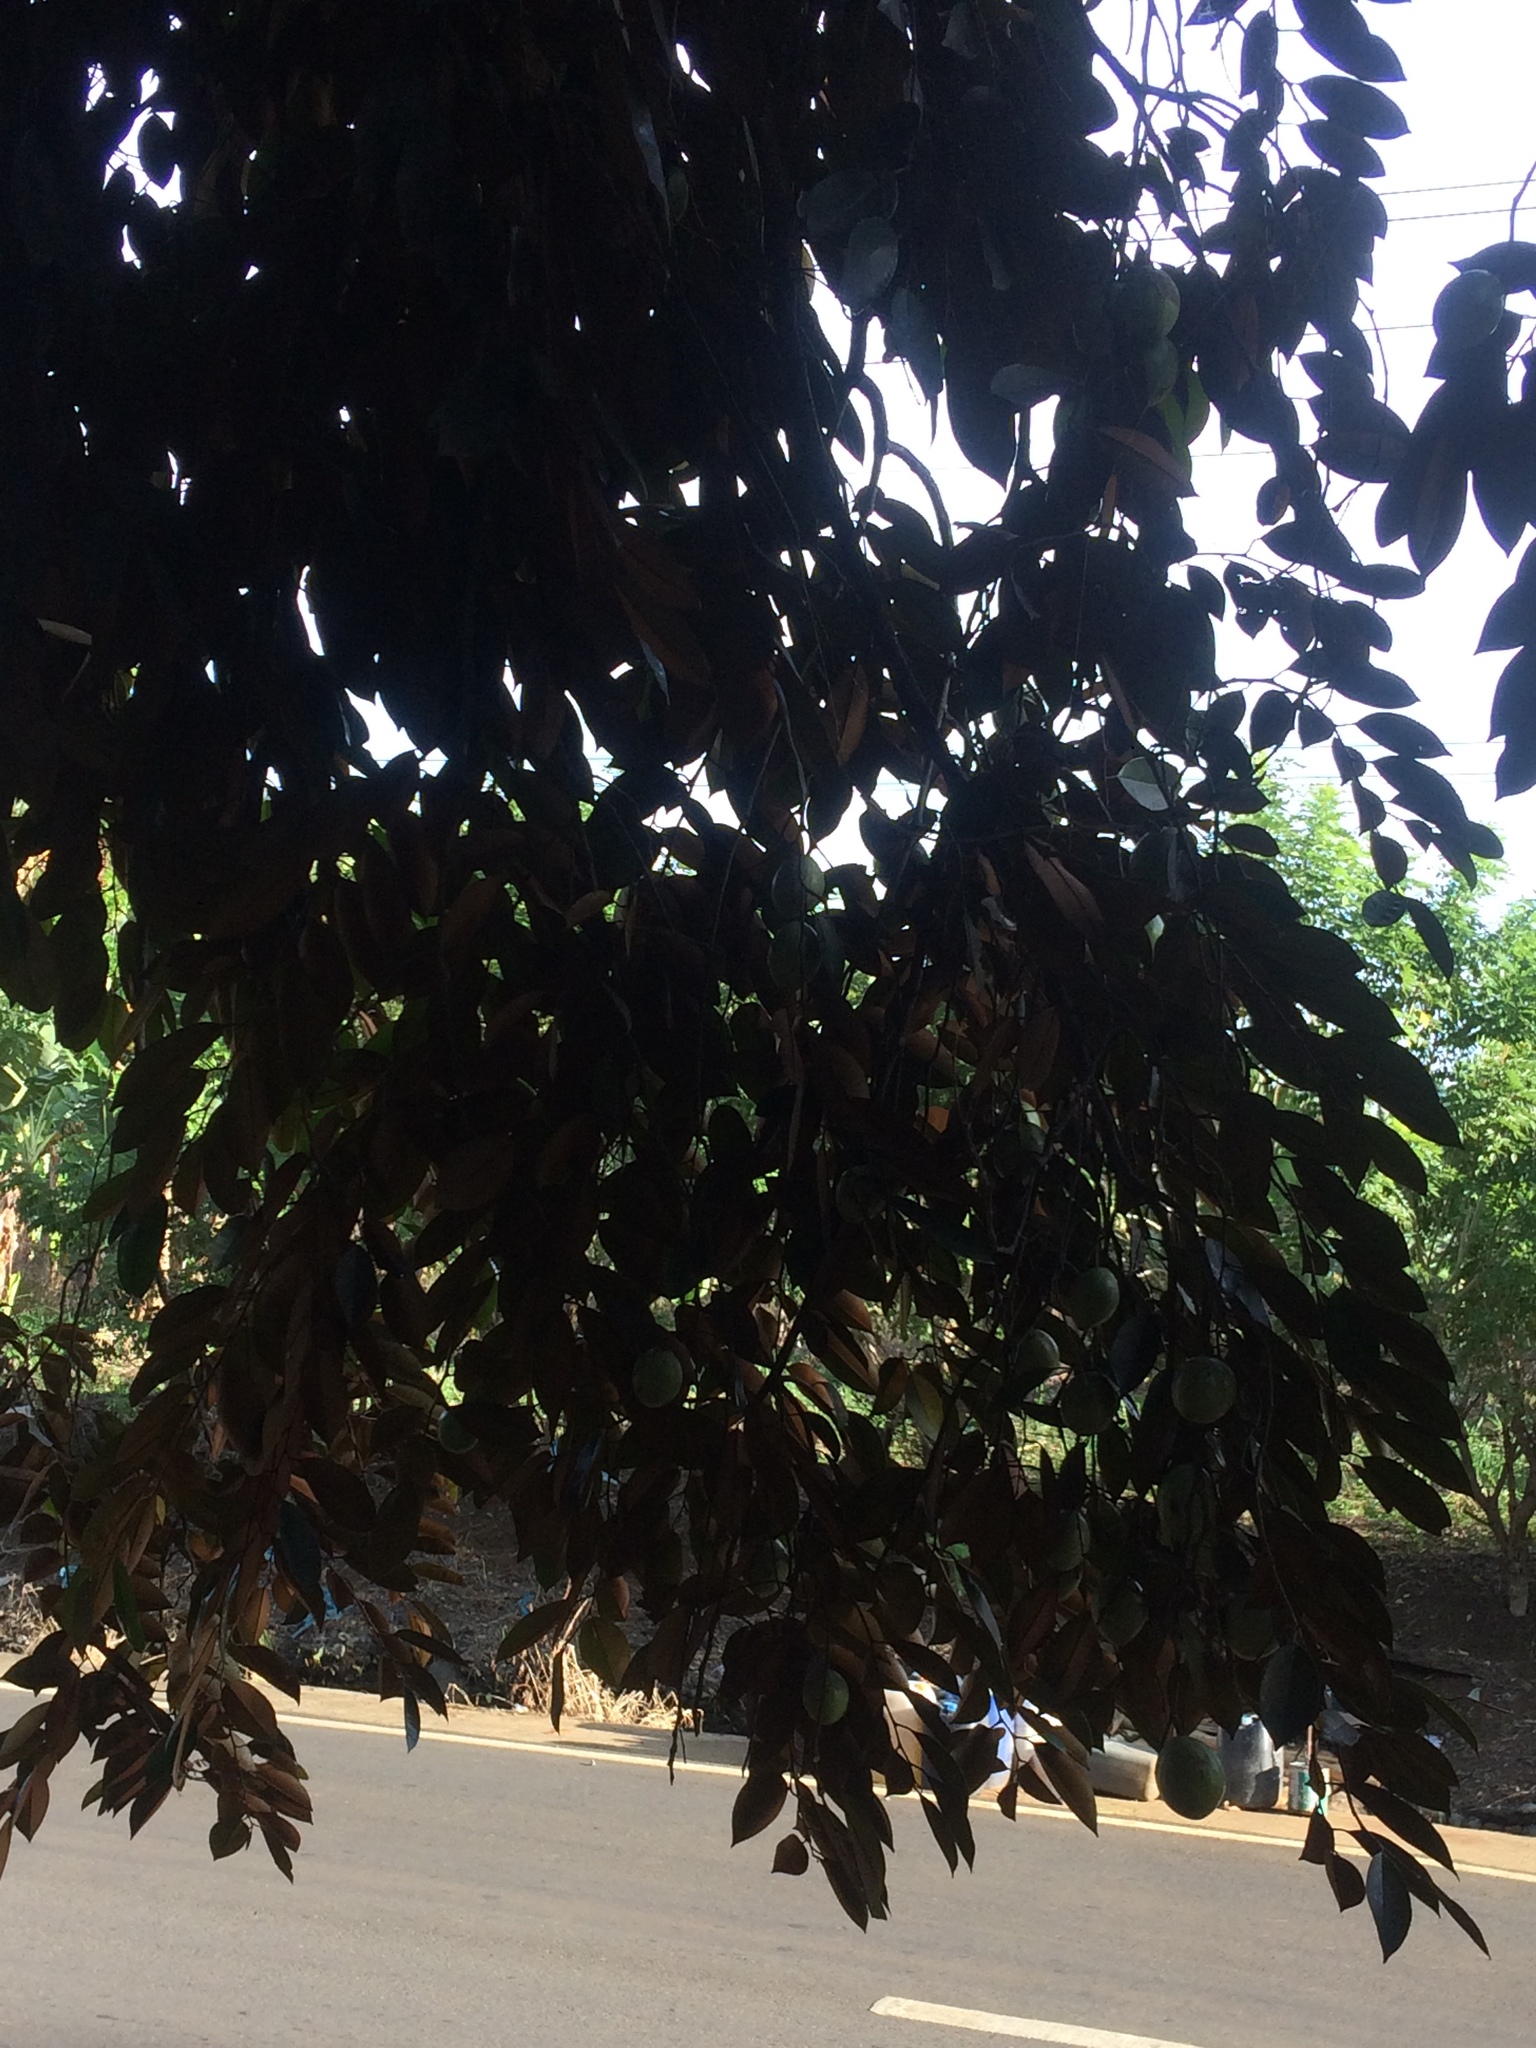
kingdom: Plantae
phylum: Tracheophyta
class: Magnoliopsida
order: Ericales
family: Sapotaceae
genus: Chrysophyllum
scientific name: Chrysophyllum cainito
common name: Star-apple
